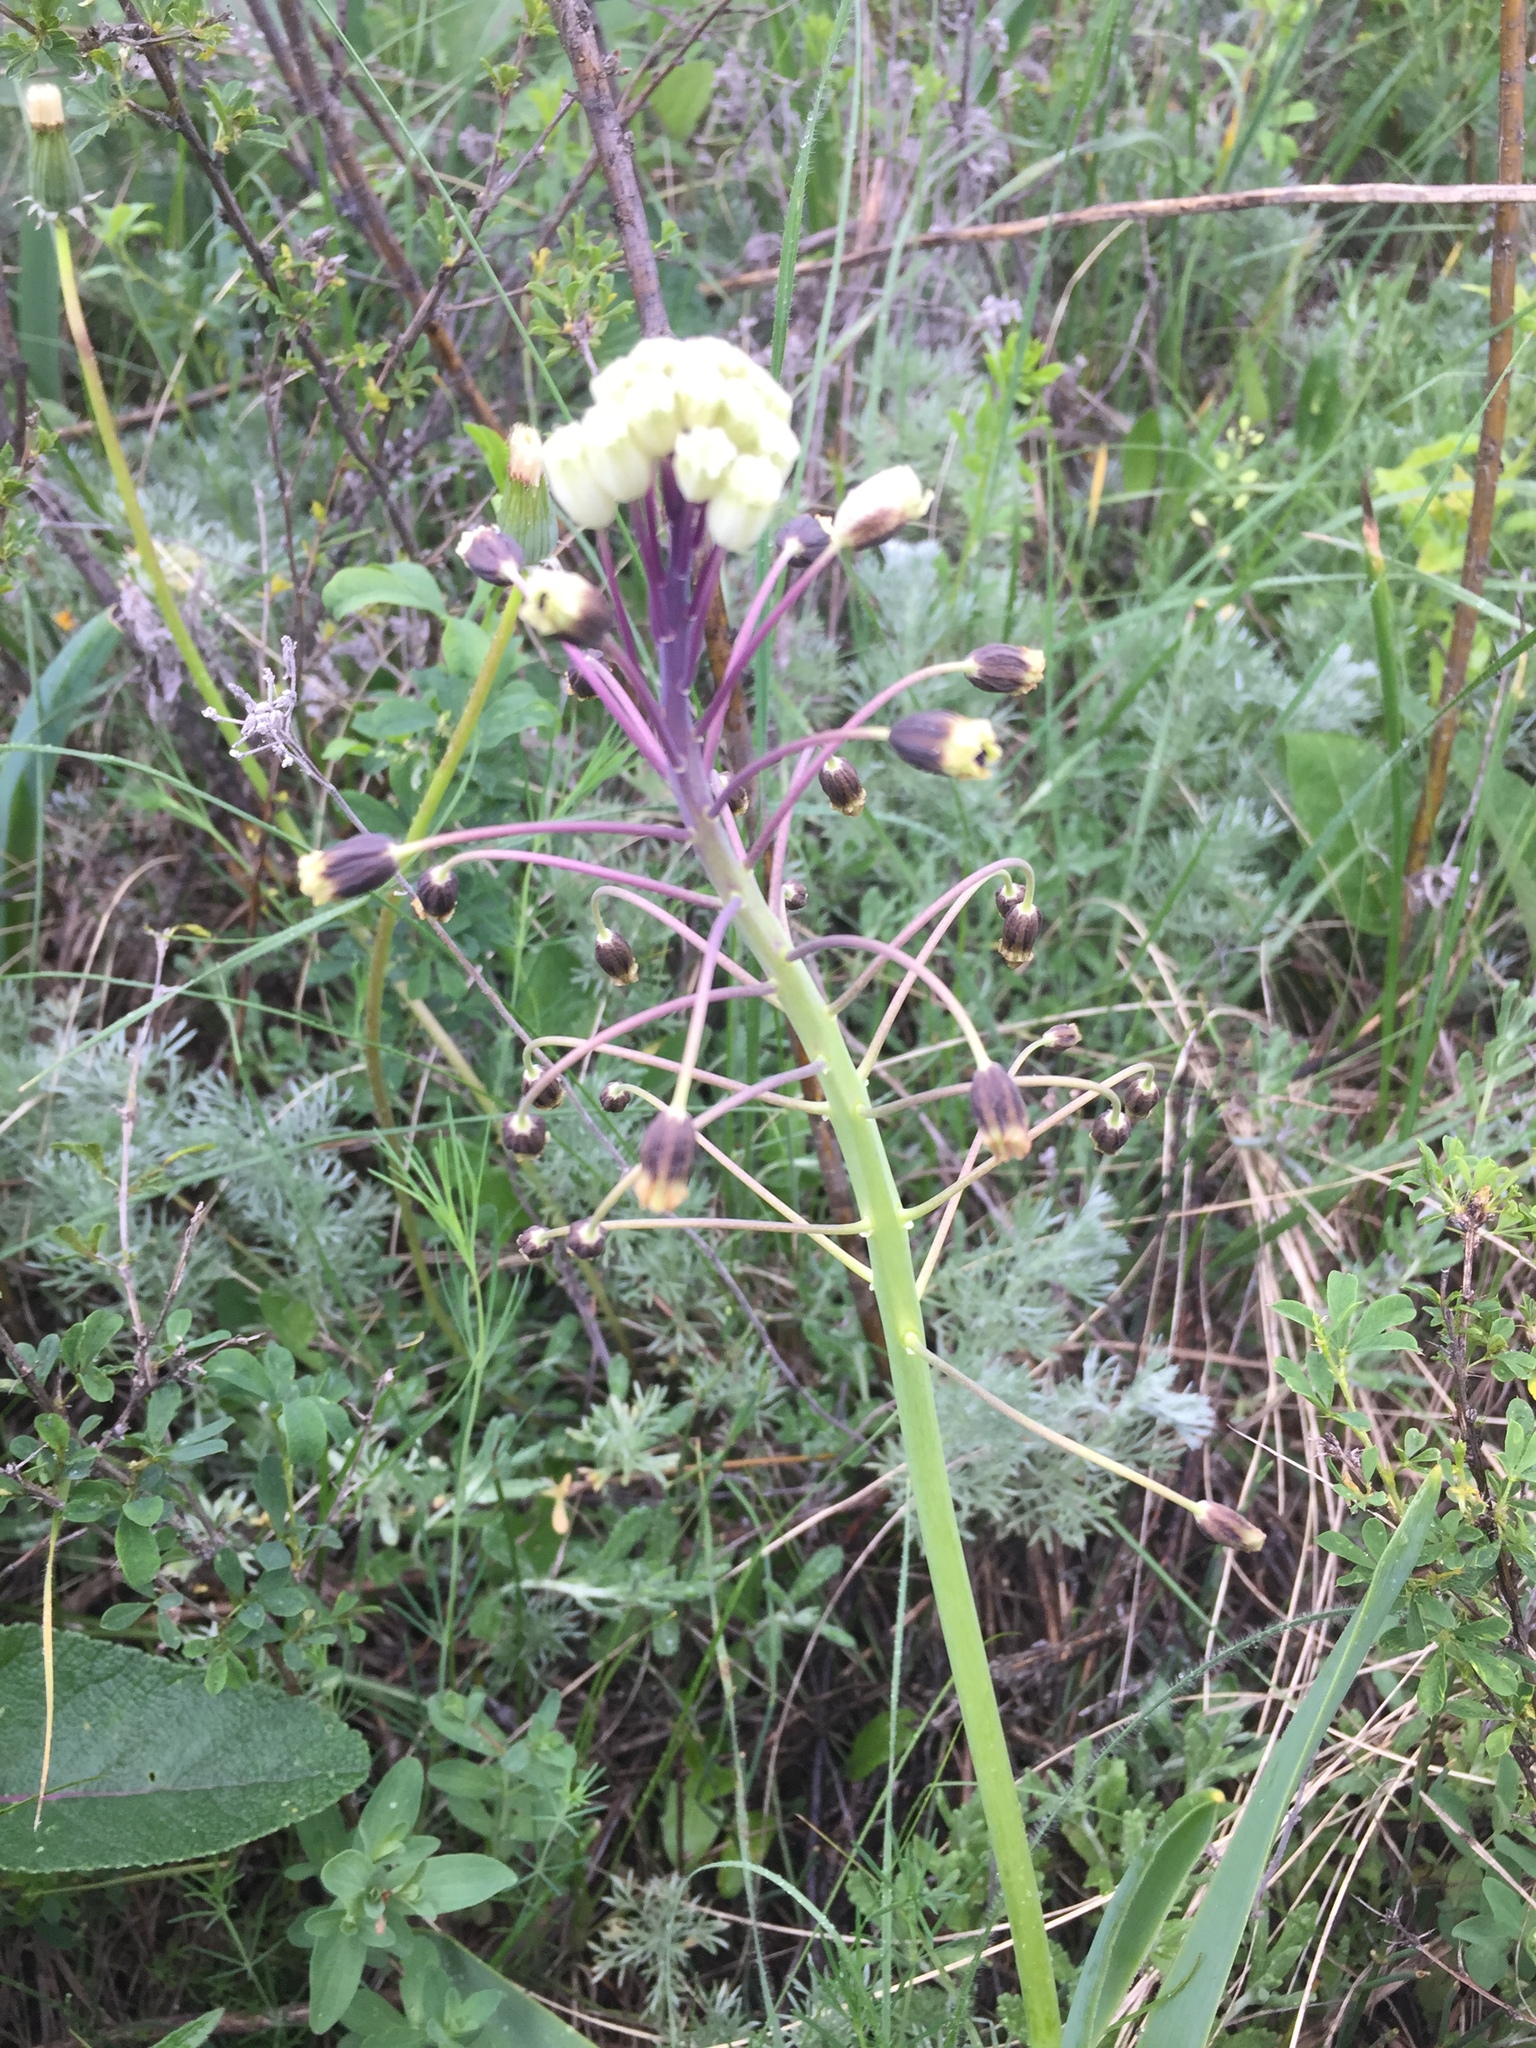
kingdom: Plantae
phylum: Tracheophyta
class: Liliopsida
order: Asparagales
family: Asparagaceae
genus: Bellevalia
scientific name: Bellevalia speciosa
